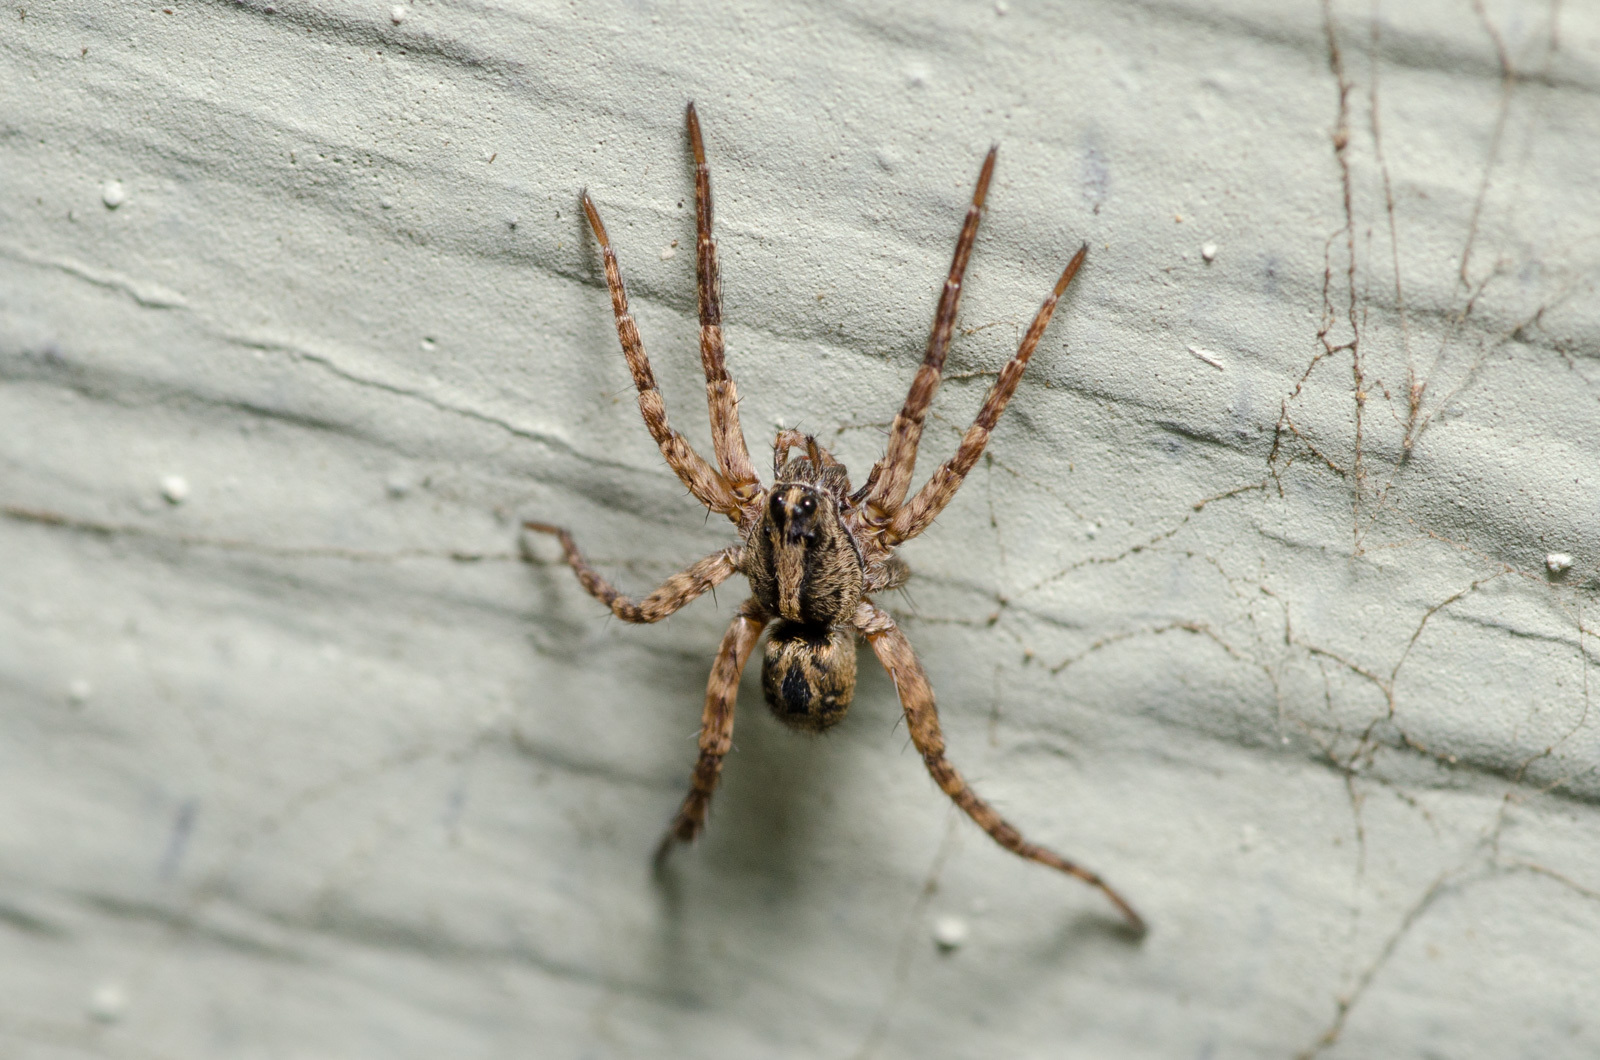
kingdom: Animalia
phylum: Arthropoda
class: Arachnida
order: Araneae
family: Lycosidae
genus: Schizocosa
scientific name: Schizocosa avida
